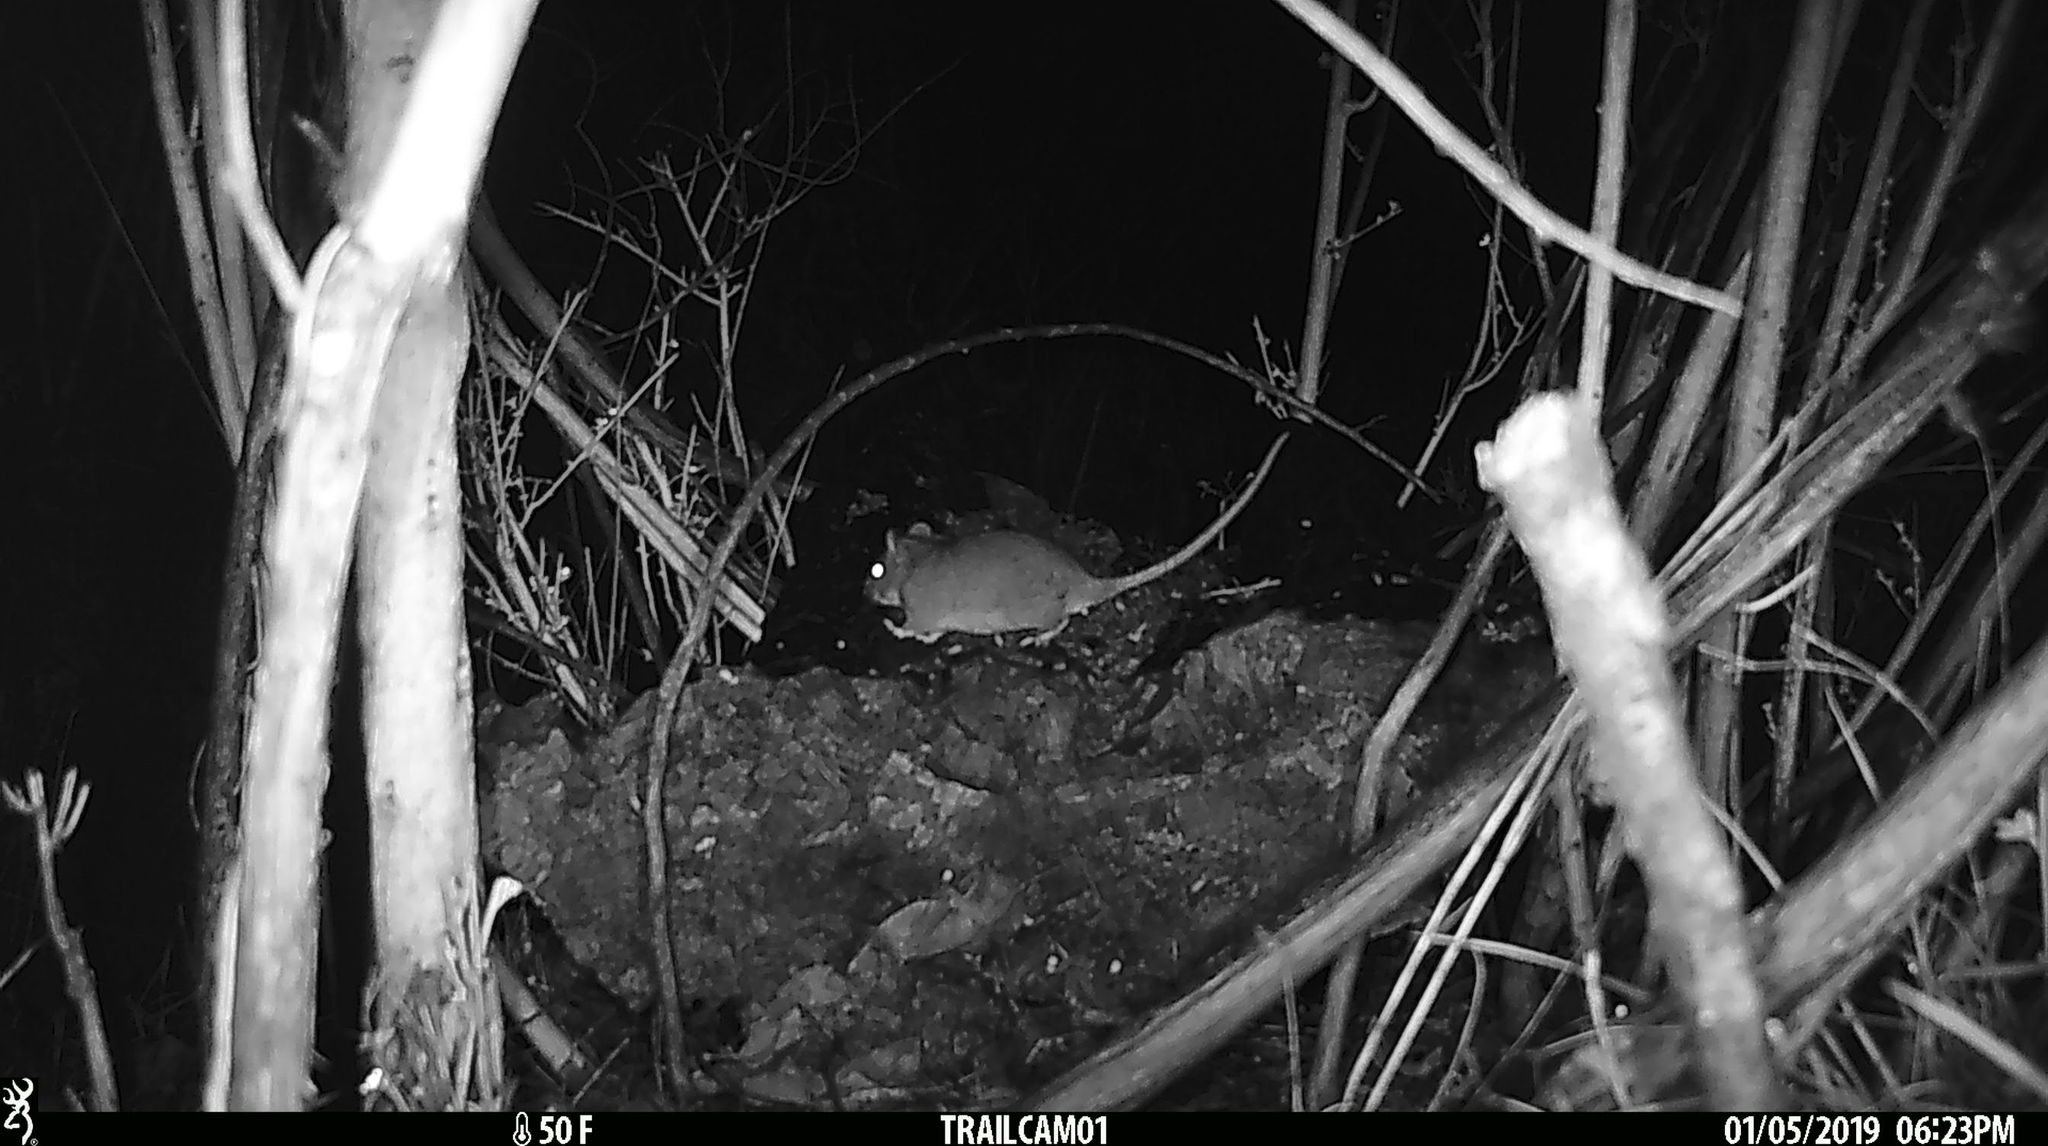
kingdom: Animalia
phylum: Chordata
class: Mammalia
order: Rodentia
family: Cricetidae
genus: Neotoma
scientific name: Neotoma fuscipes
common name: Dusky-footed woodrat
